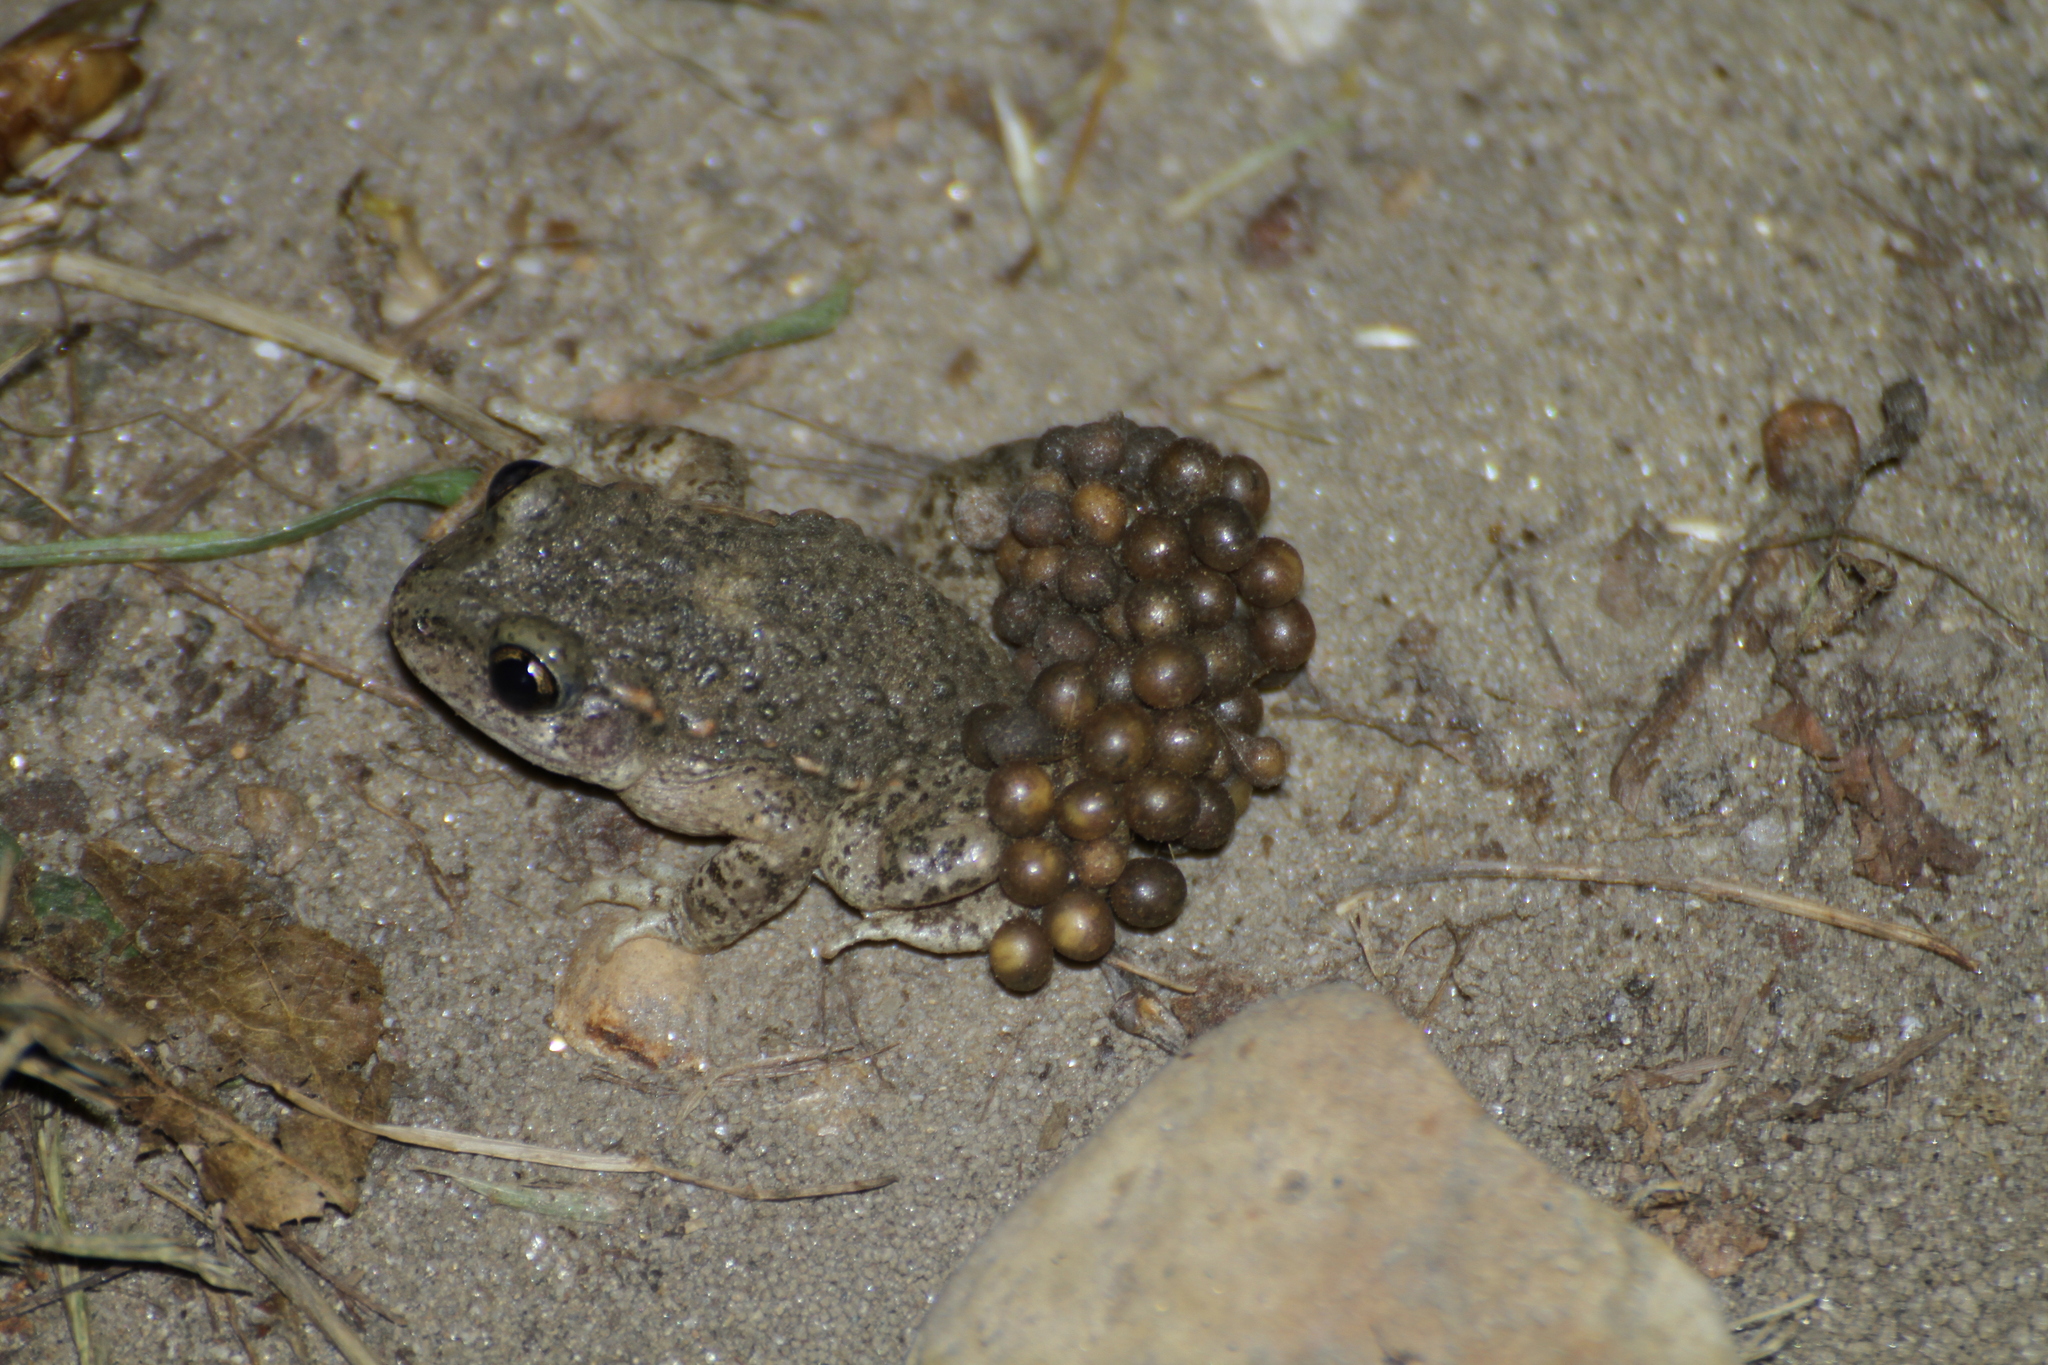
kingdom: Animalia
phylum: Chordata
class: Amphibia
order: Anura
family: Alytidae
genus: Alytes
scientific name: Alytes obstetricans
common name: Midwife toad
